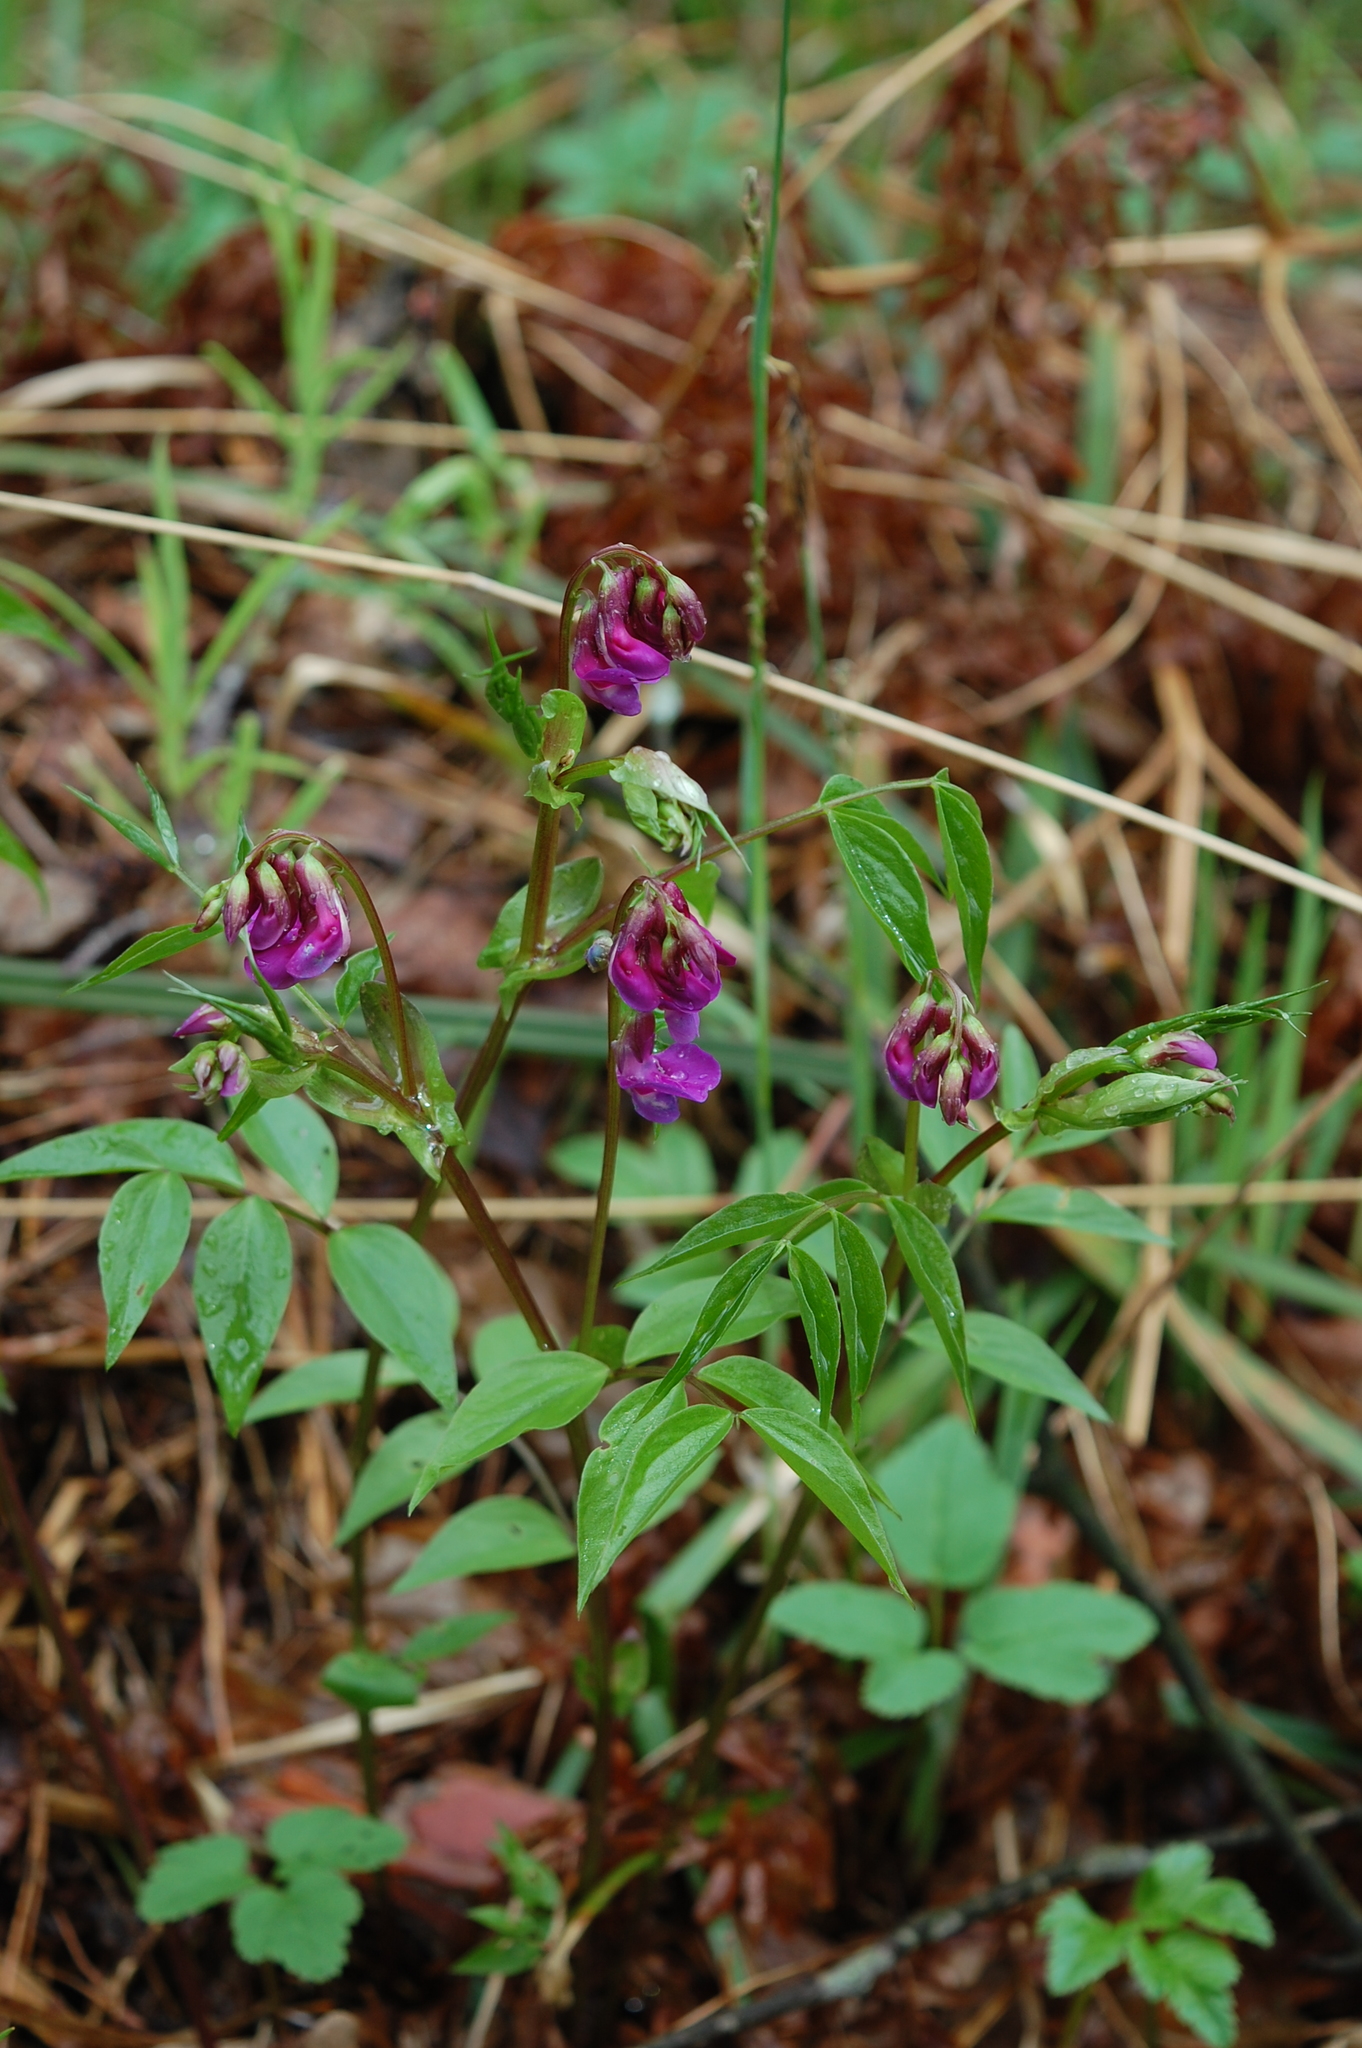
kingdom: Plantae
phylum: Tracheophyta
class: Magnoliopsida
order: Fabales
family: Fabaceae
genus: Lathyrus
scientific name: Lathyrus vernus
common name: Spring pea
